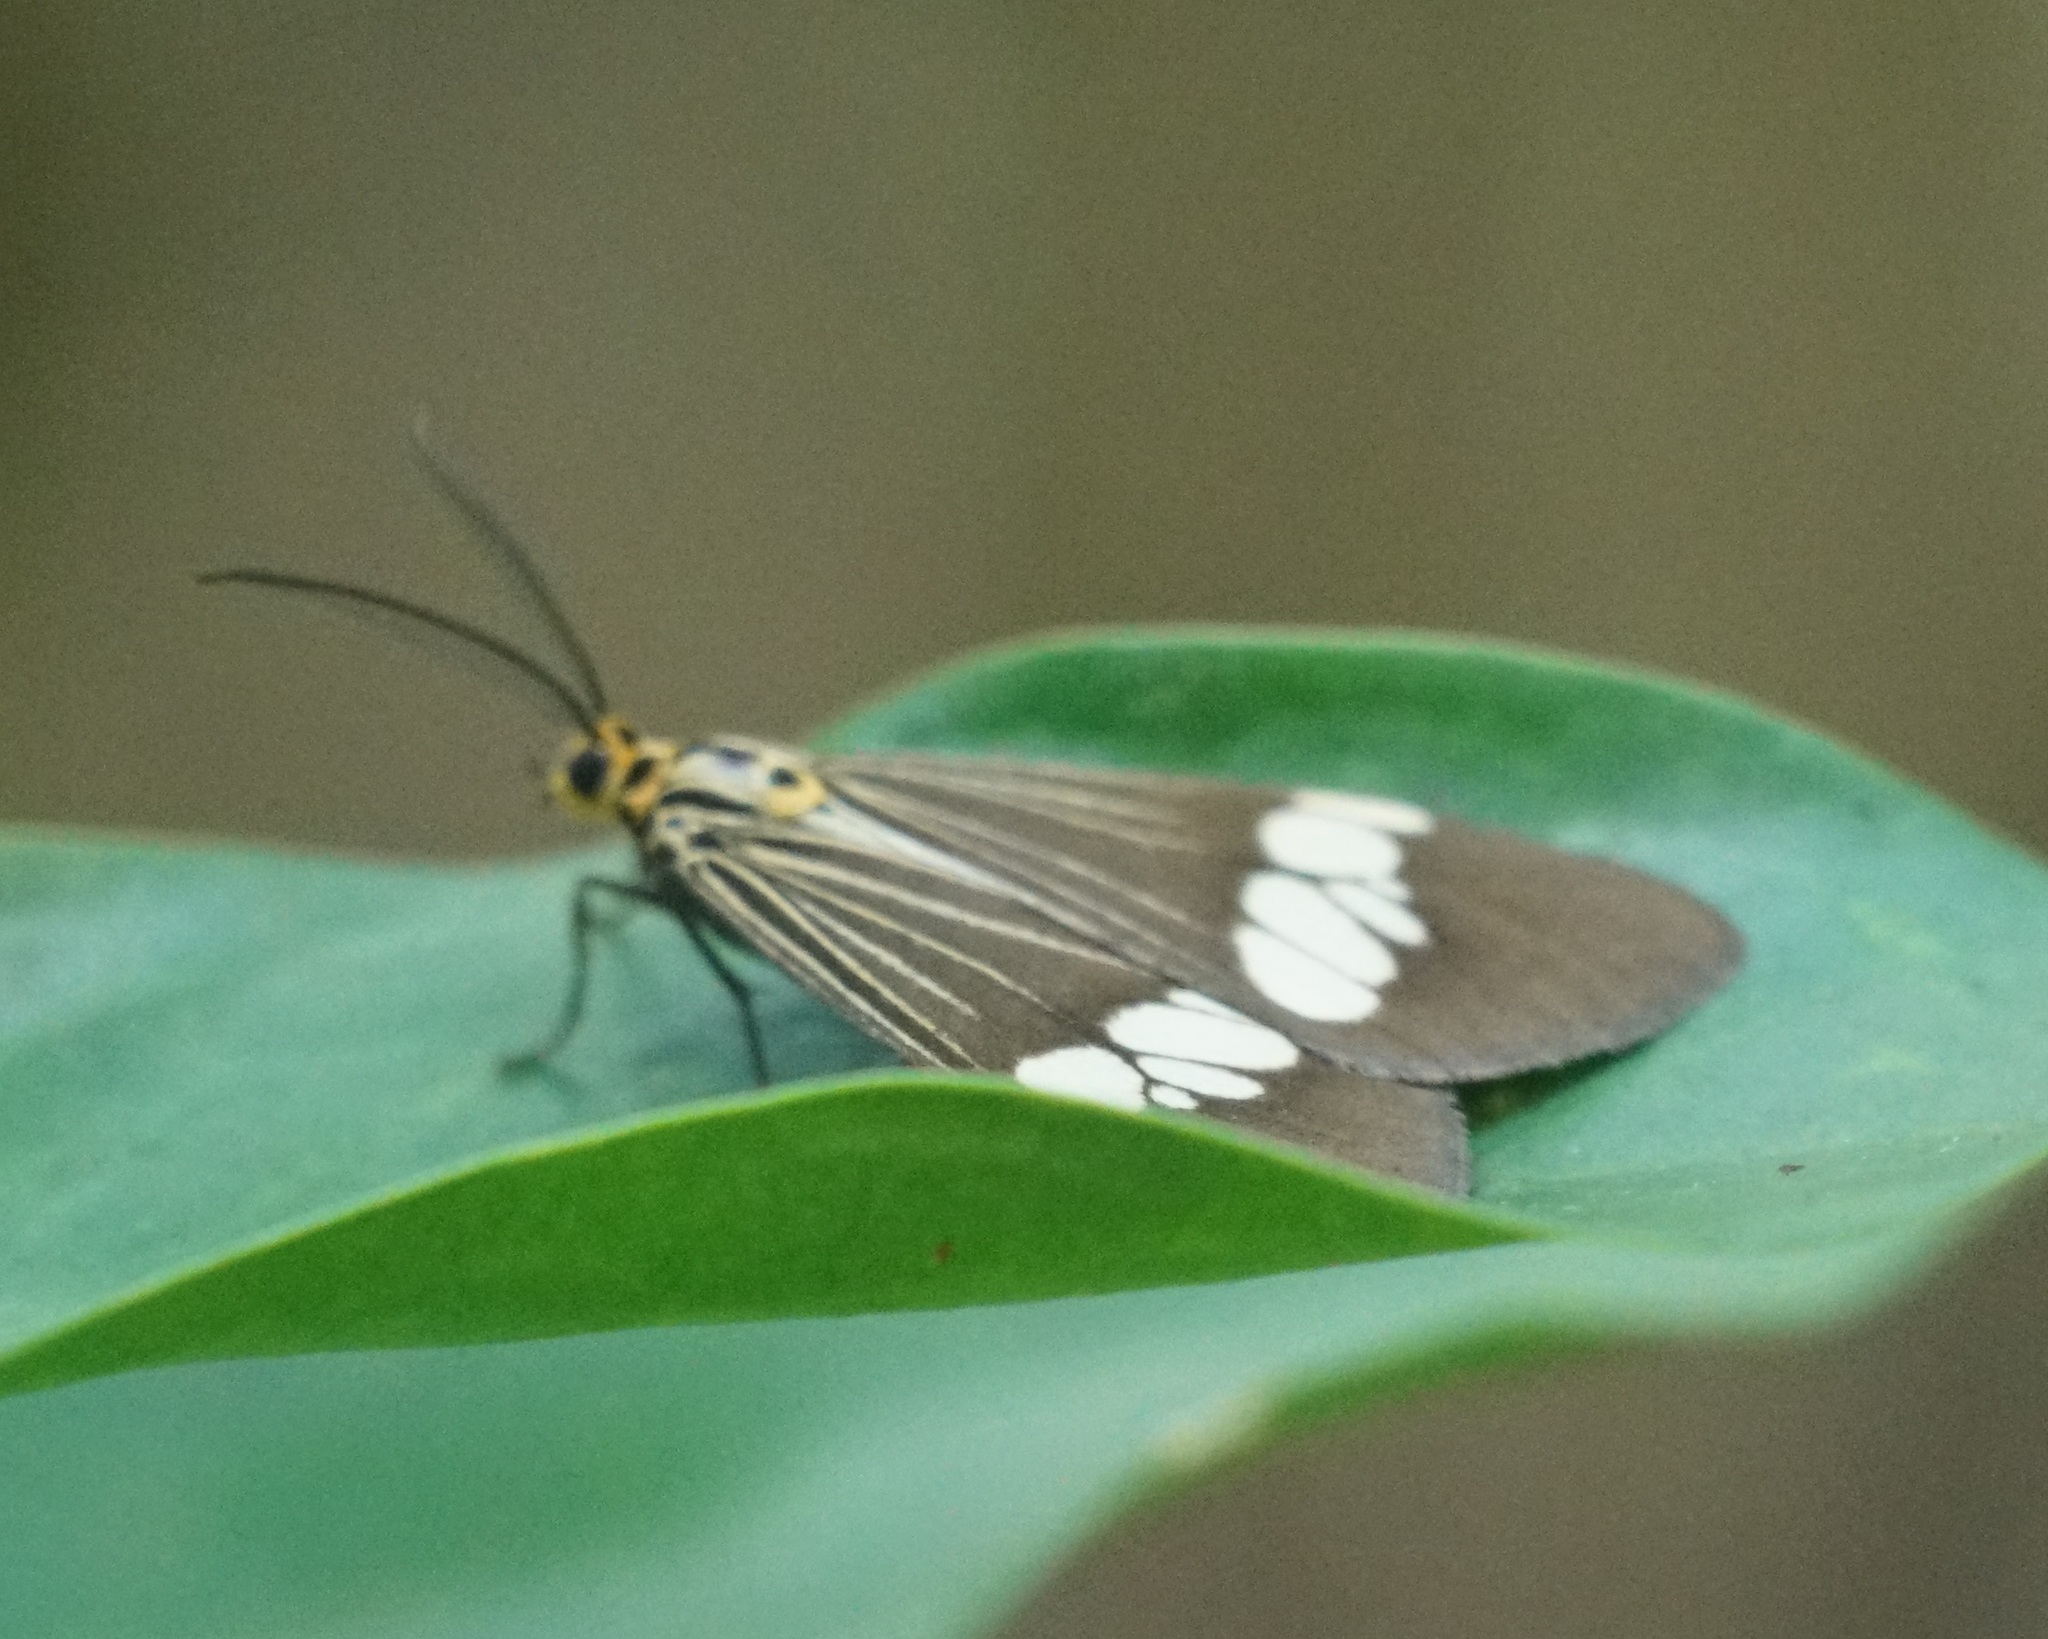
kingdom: Animalia
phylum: Arthropoda
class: Insecta
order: Lepidoptera
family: Erebidae
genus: Nyctemera
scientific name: Nyctemera baulus
